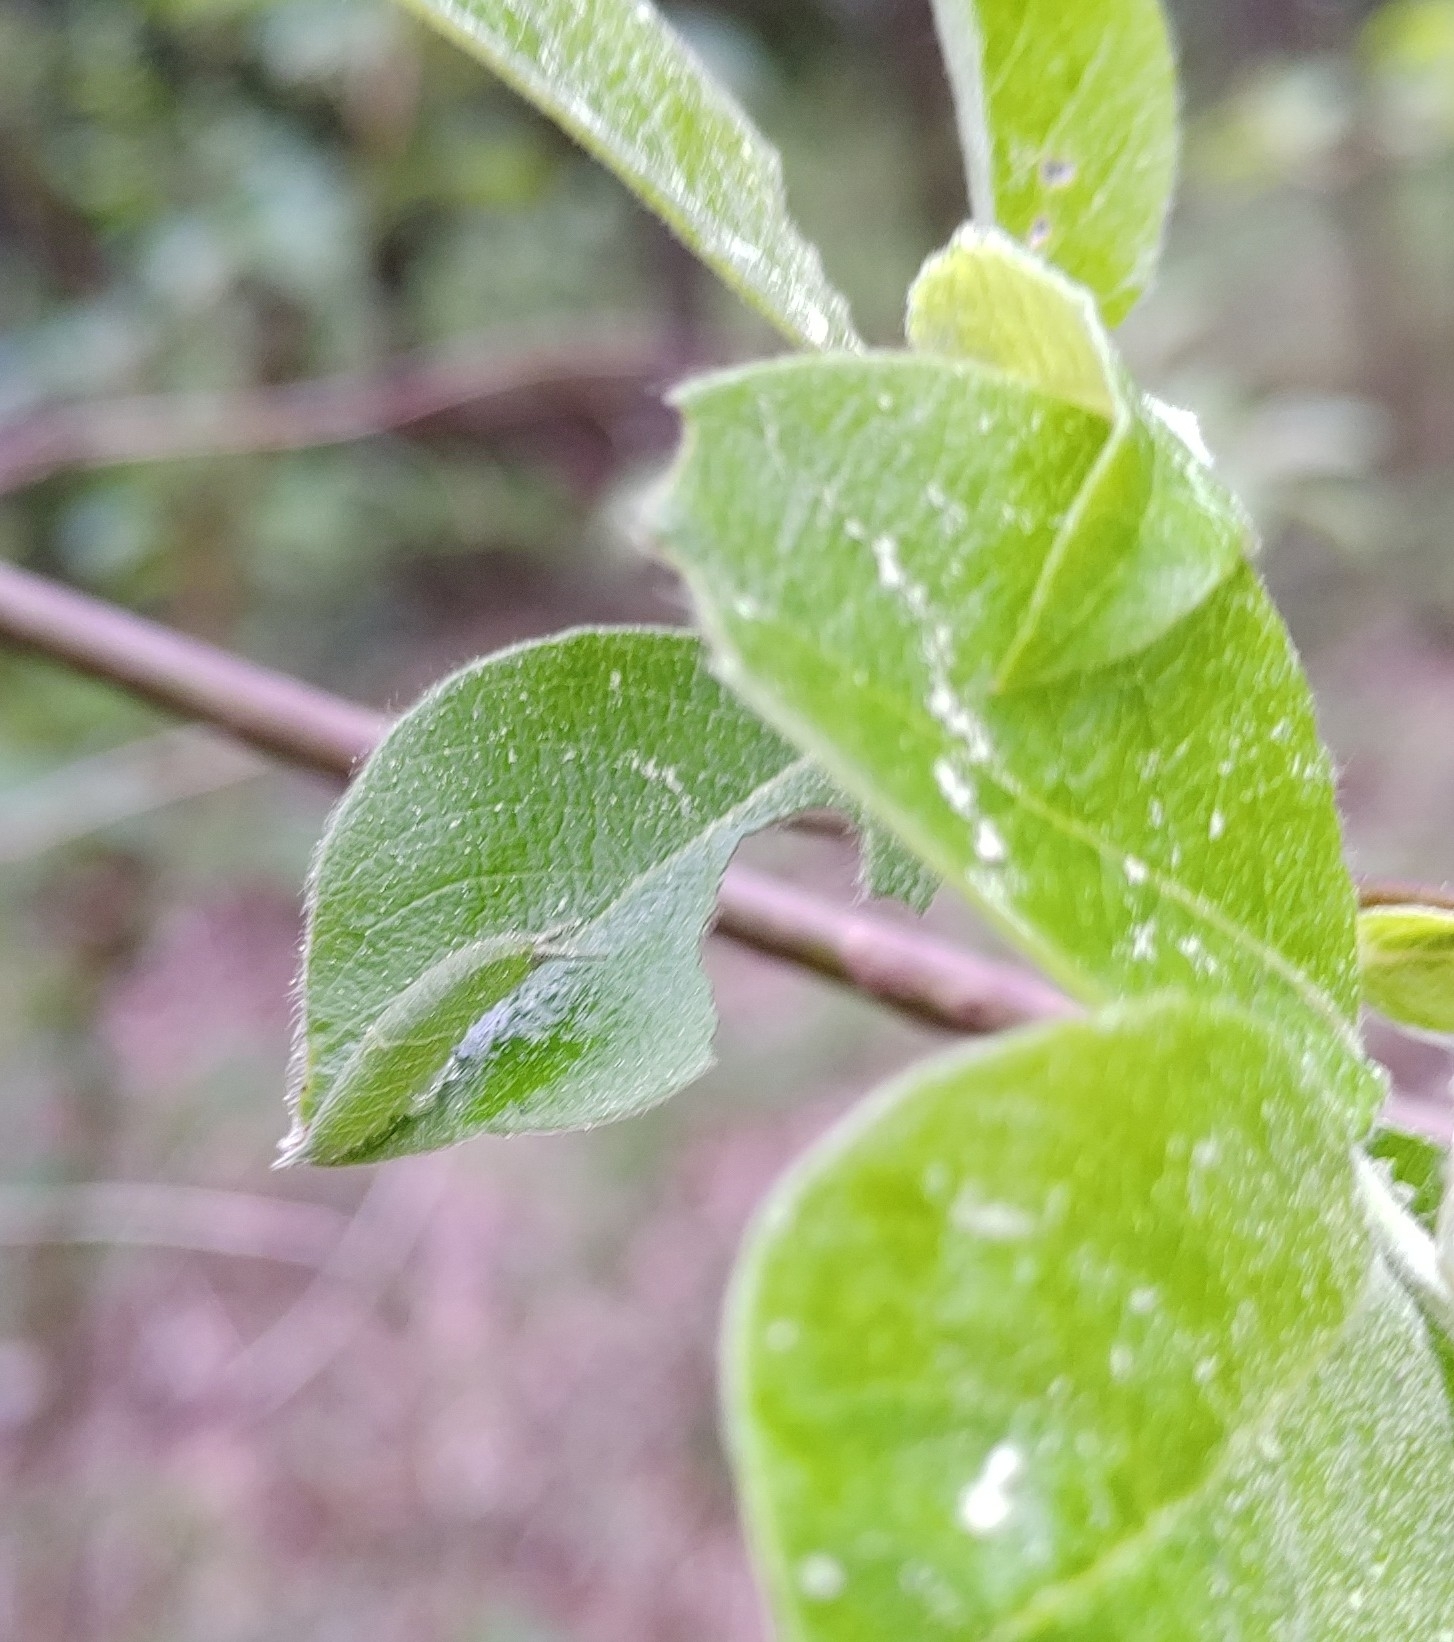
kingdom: Animalia
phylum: Arthropoda
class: Insecta
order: Lepidoptera
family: Nymphalidae
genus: Apatura
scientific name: Apatura iris
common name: Purple emperor
